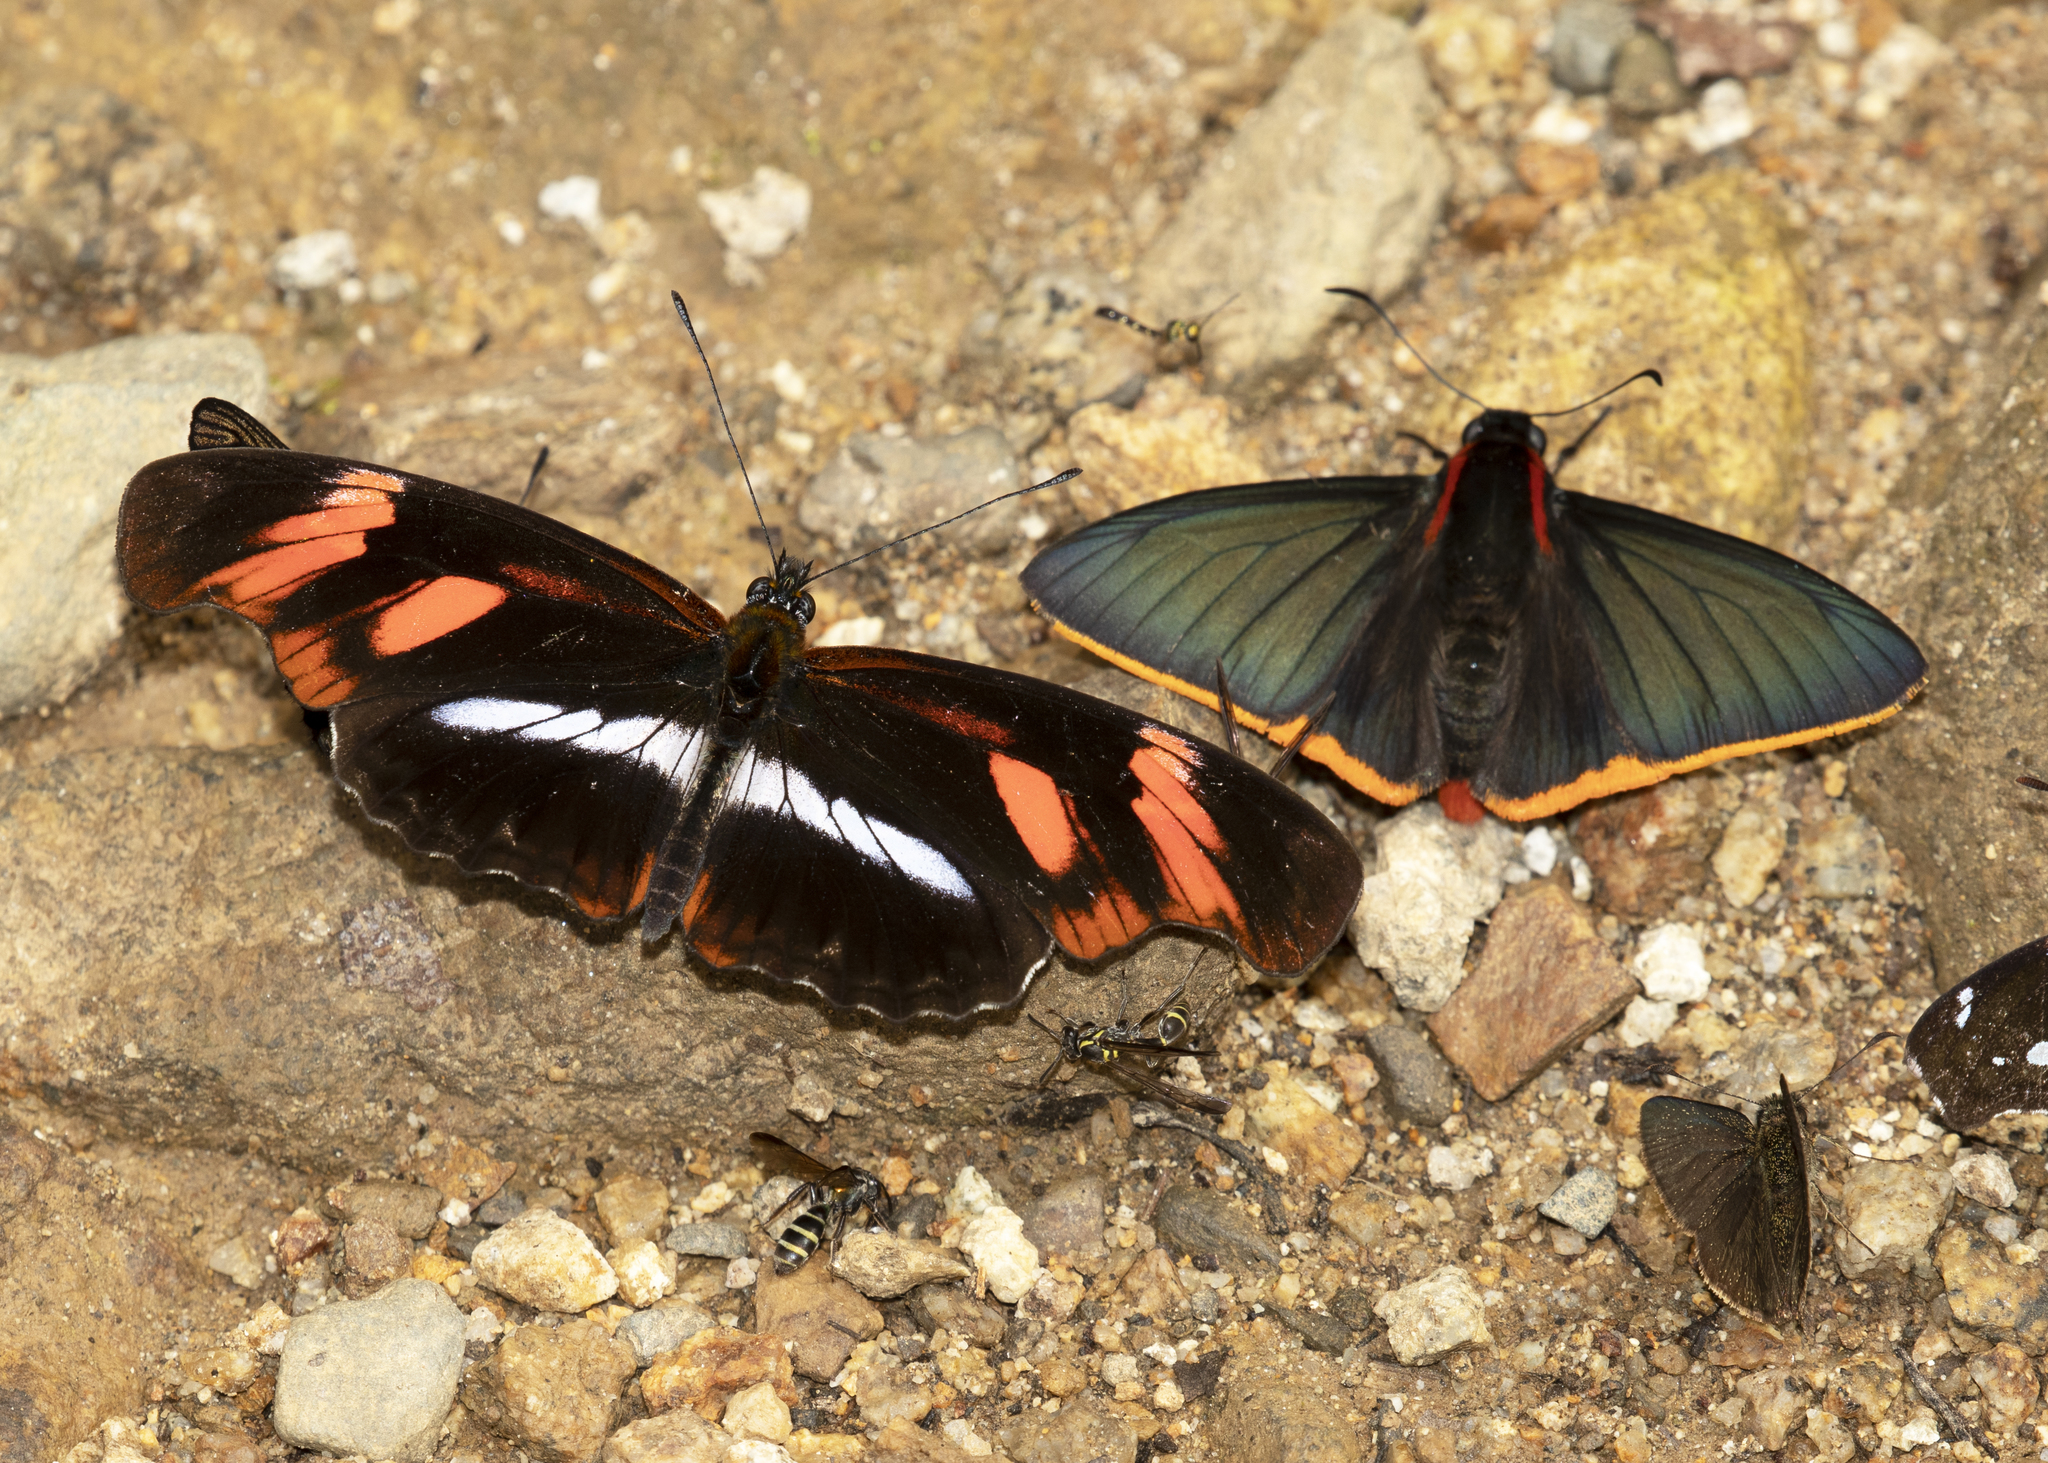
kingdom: Animalia
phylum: Arthropoda
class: Insecta
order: Lepidoptera
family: Nymphalidae
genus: Podotricha
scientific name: Podotricha telesiphe
